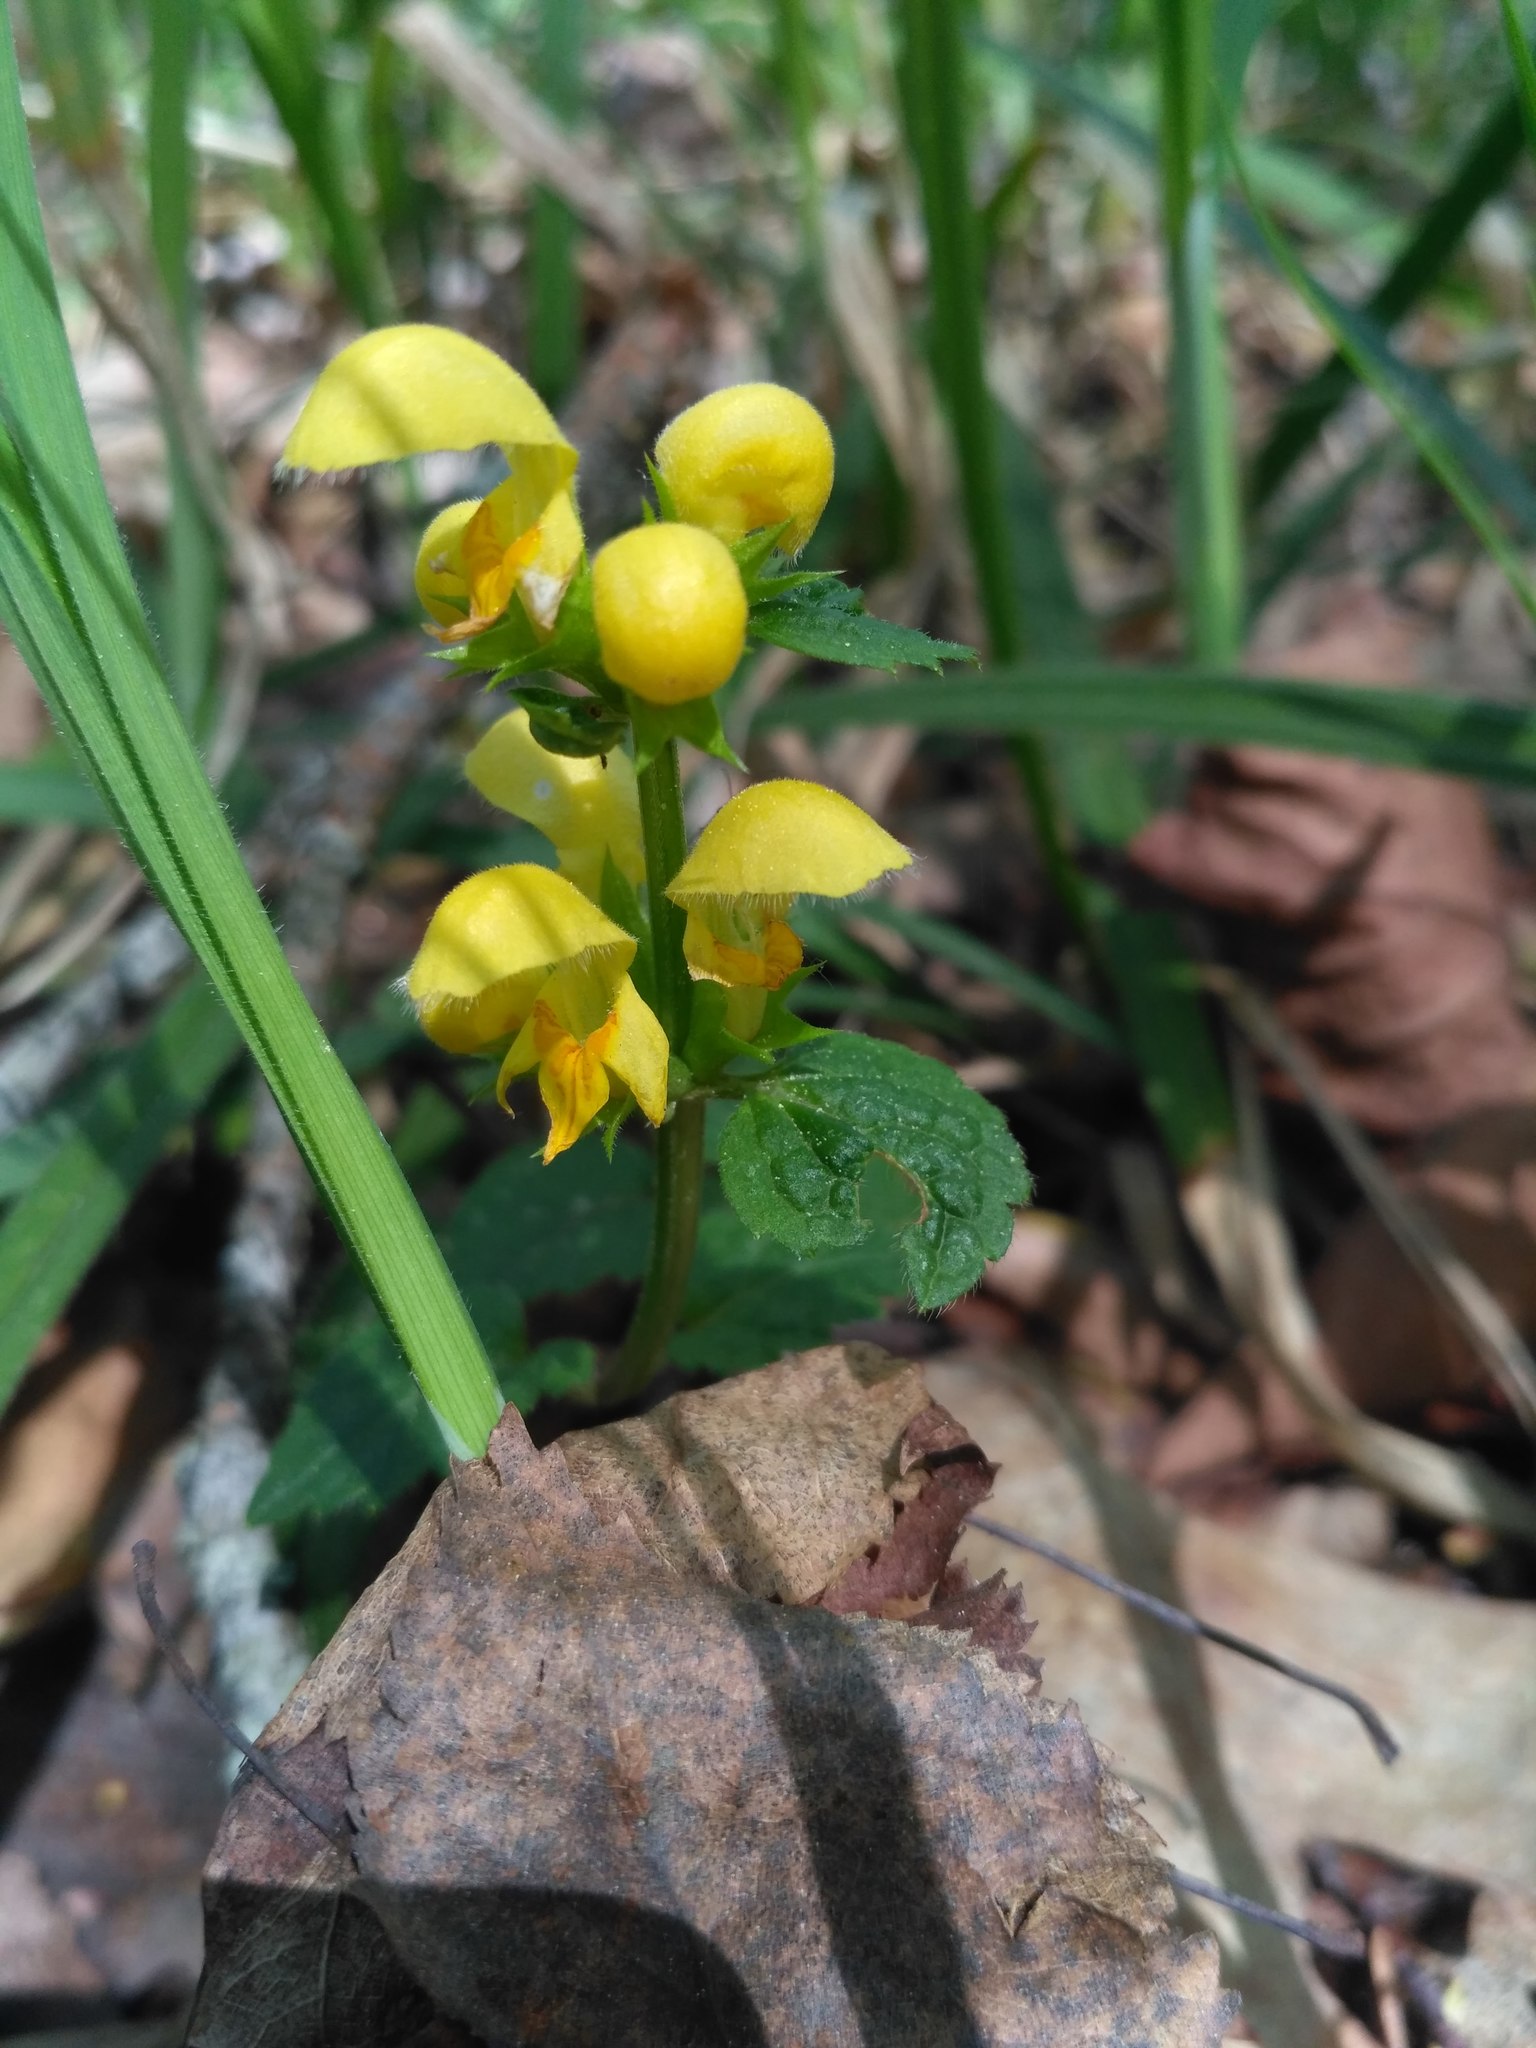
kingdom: Plantae
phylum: Tracheophyta
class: Magnoliopsida
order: Lamiales
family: Lamiaceae
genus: Lamium
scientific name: Lamium galeobdolon
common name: Yellow archangel
